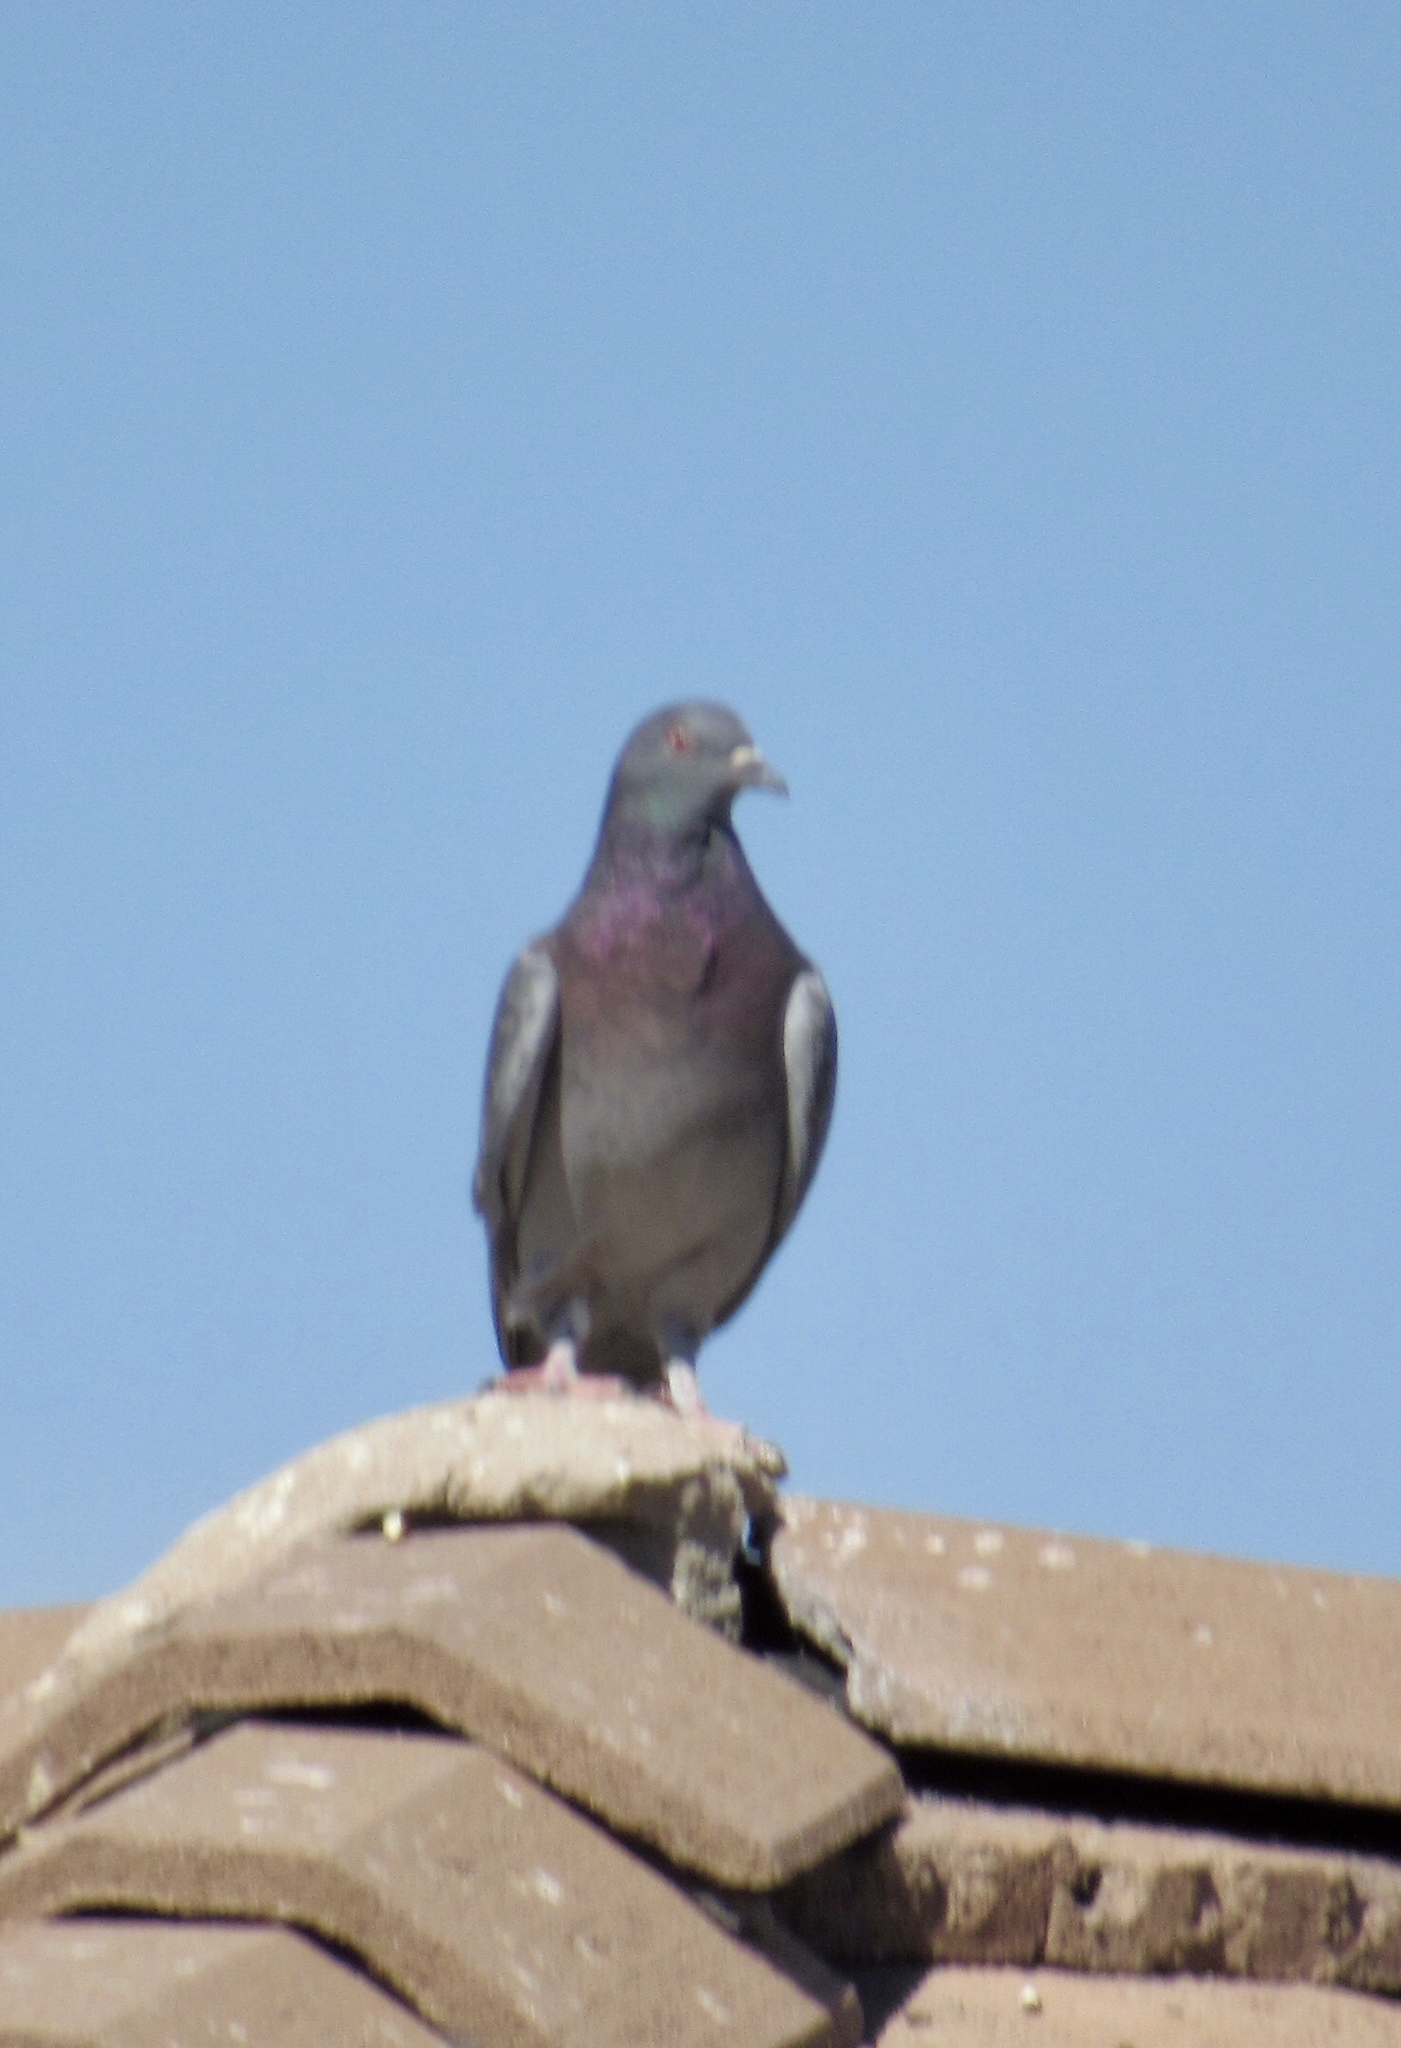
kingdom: Animalia
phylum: Chordata
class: Aves
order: Columbiformes
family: Columbidae
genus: Columba
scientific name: Columba livia
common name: Rock pigeon
